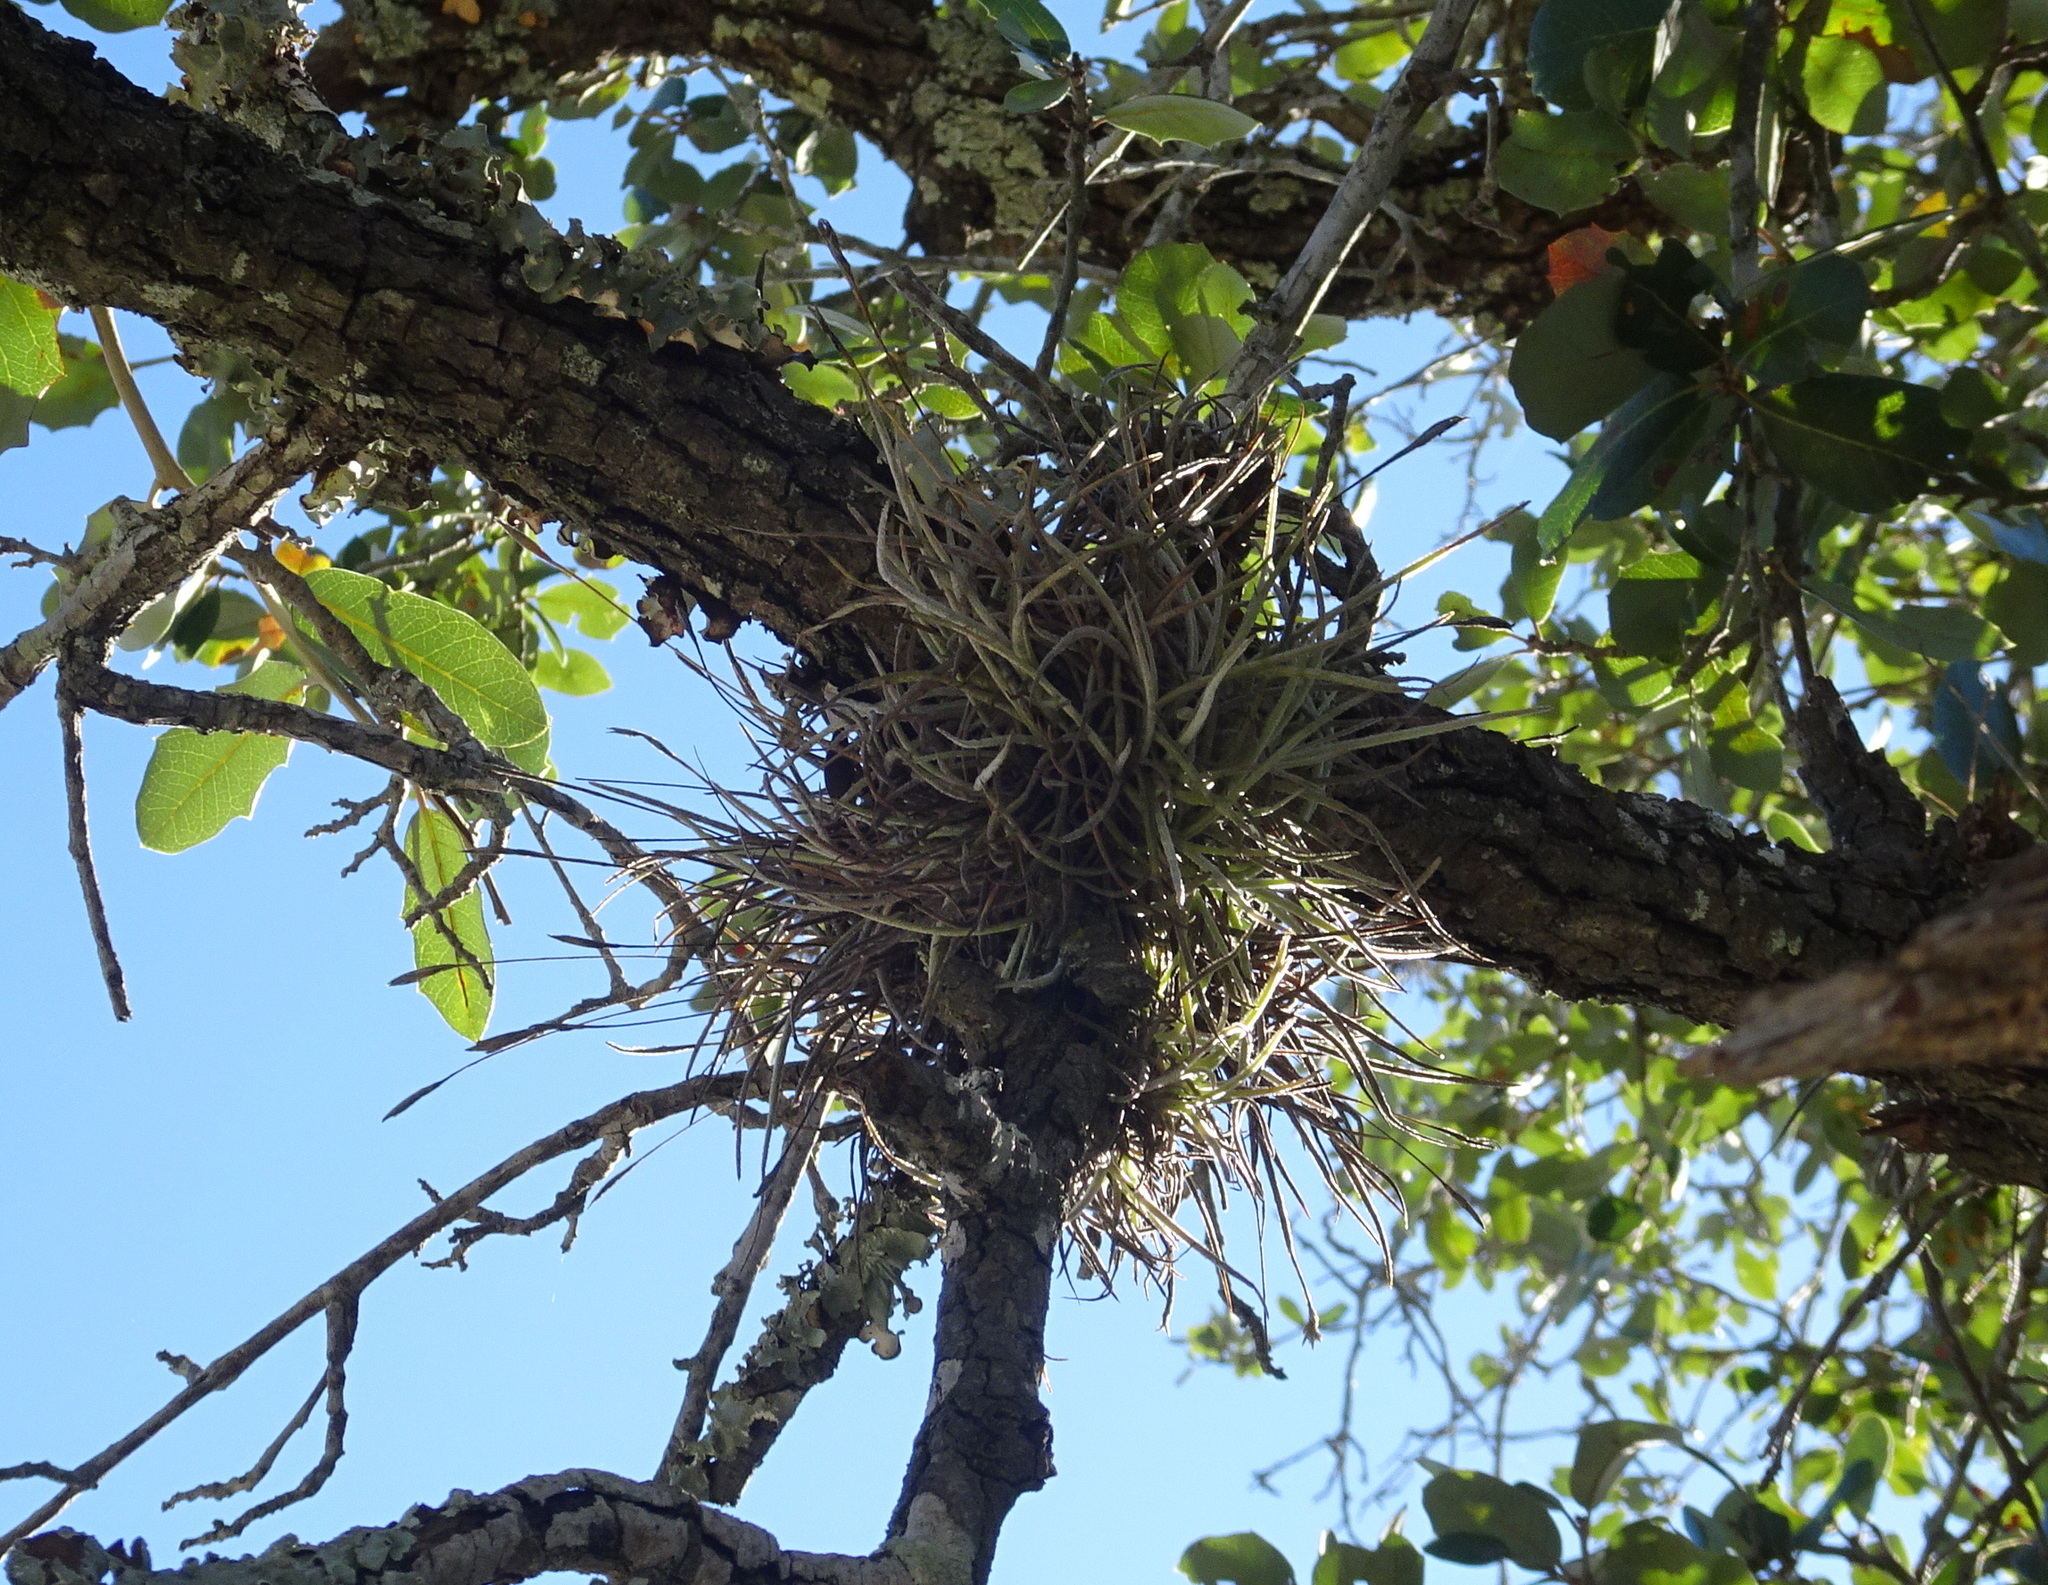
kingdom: Plantae
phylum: Tracheophyta
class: Liliopsida
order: Poales
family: Bromeliaceae
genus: Tillandsia
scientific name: Tillandsia recurvata
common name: Small ballmoss
